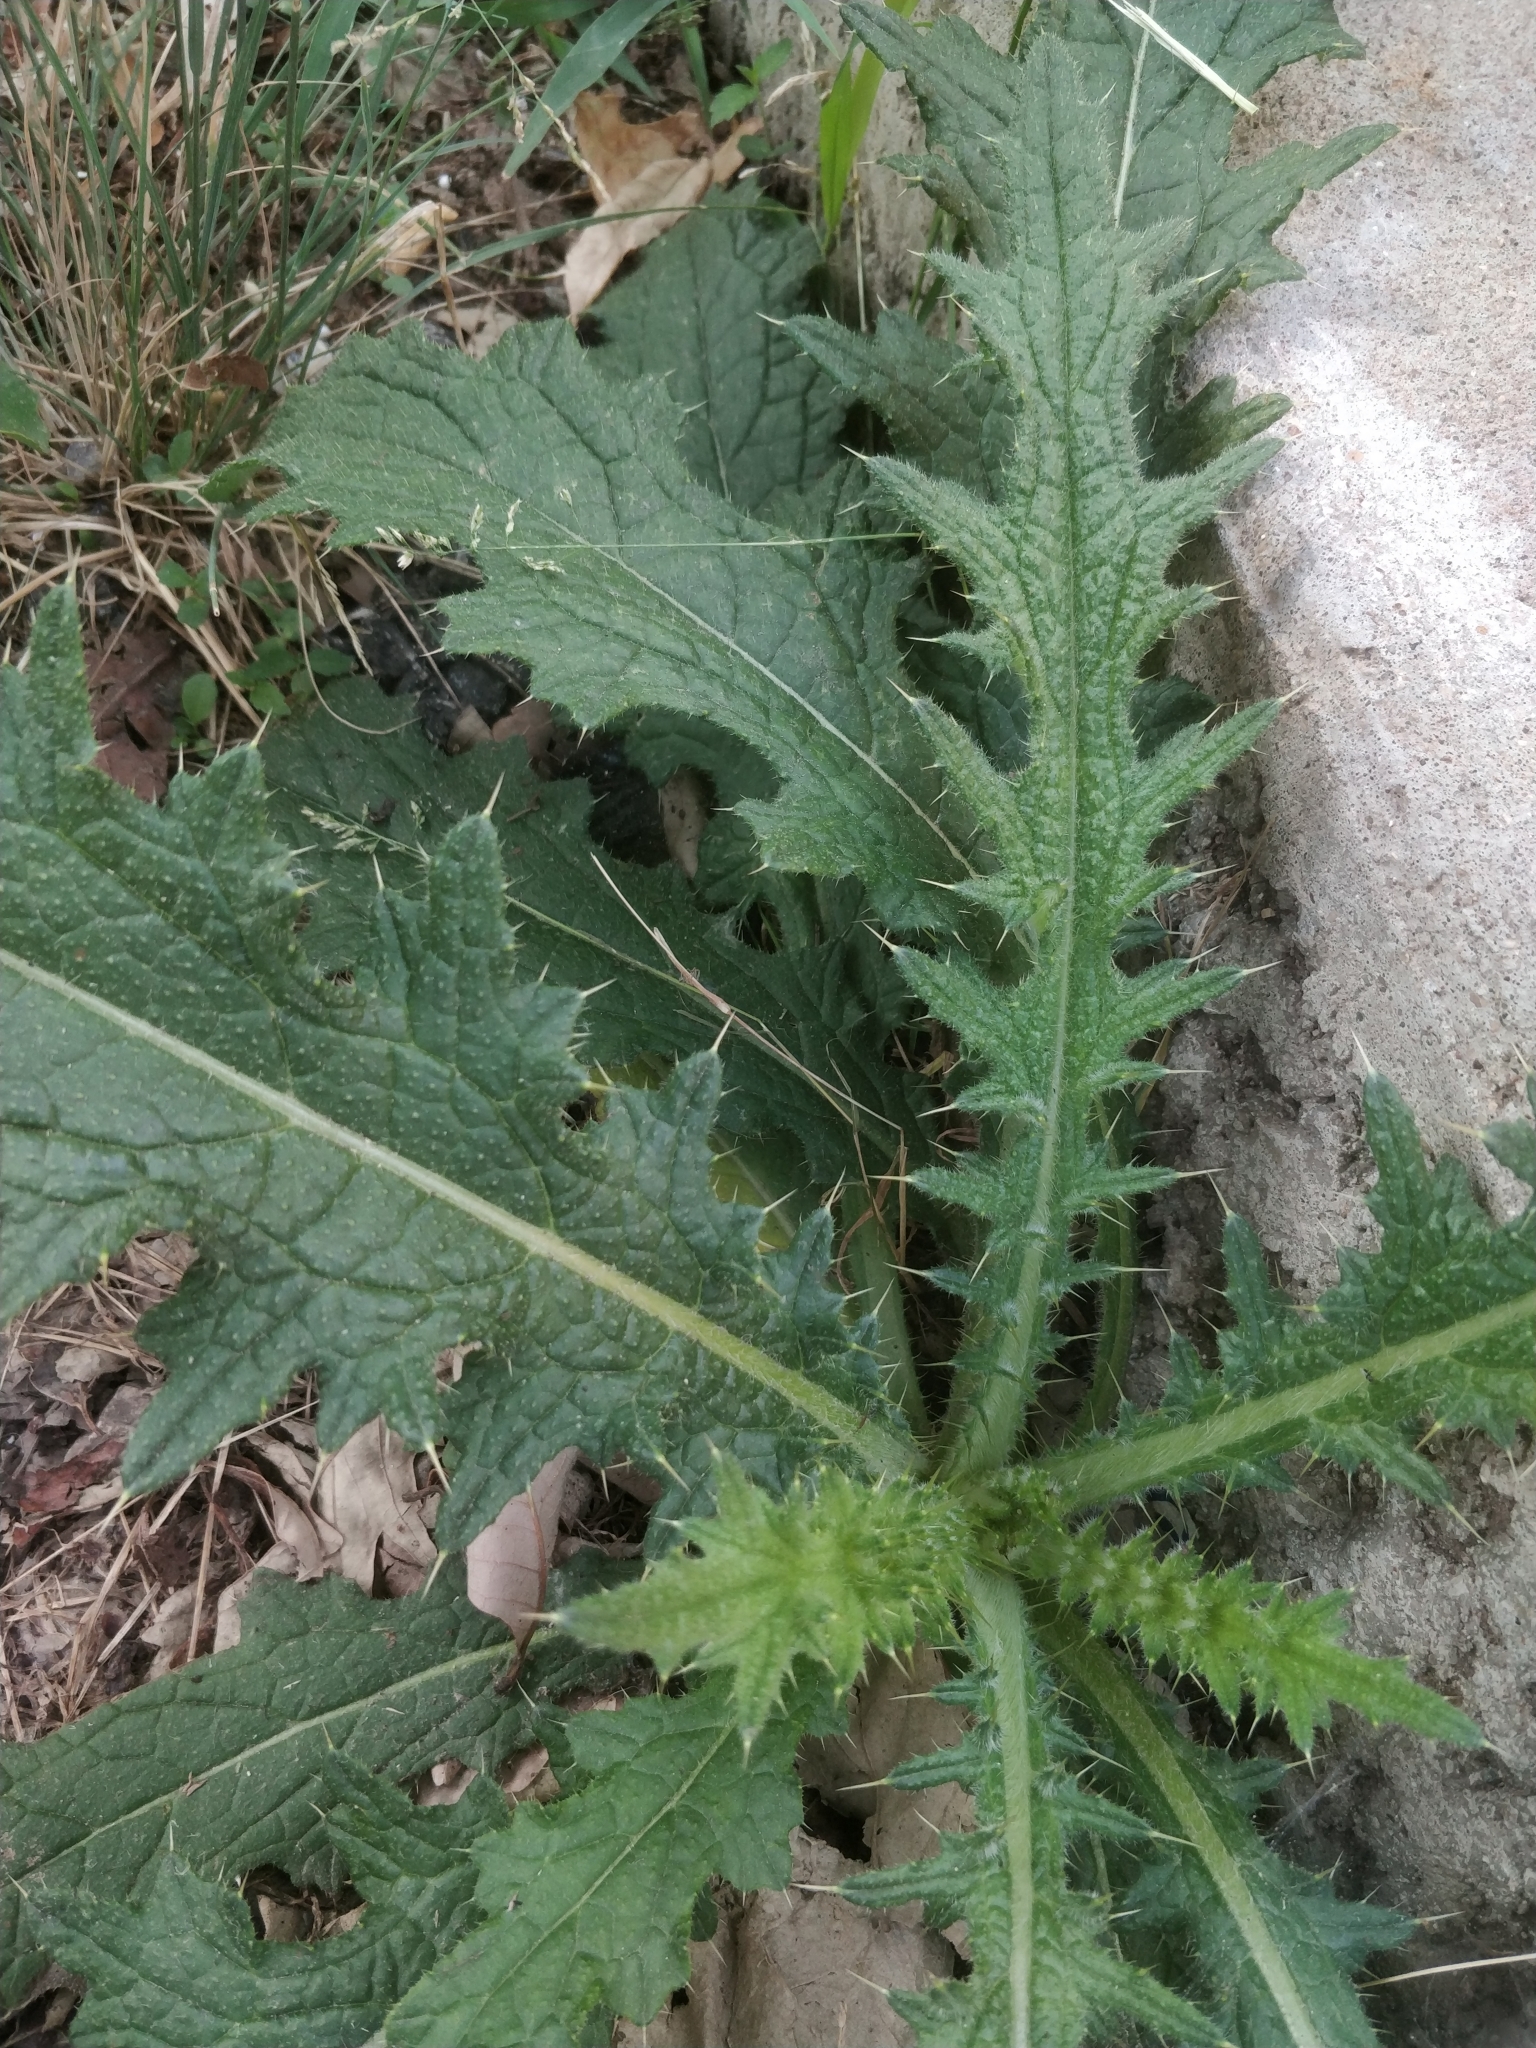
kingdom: Plantae
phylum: Tracheophyta
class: Magnoliopsida
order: Asterales
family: Asteraceae
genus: Cirsium
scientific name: Cirsium vulgare
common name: Bull thistle
